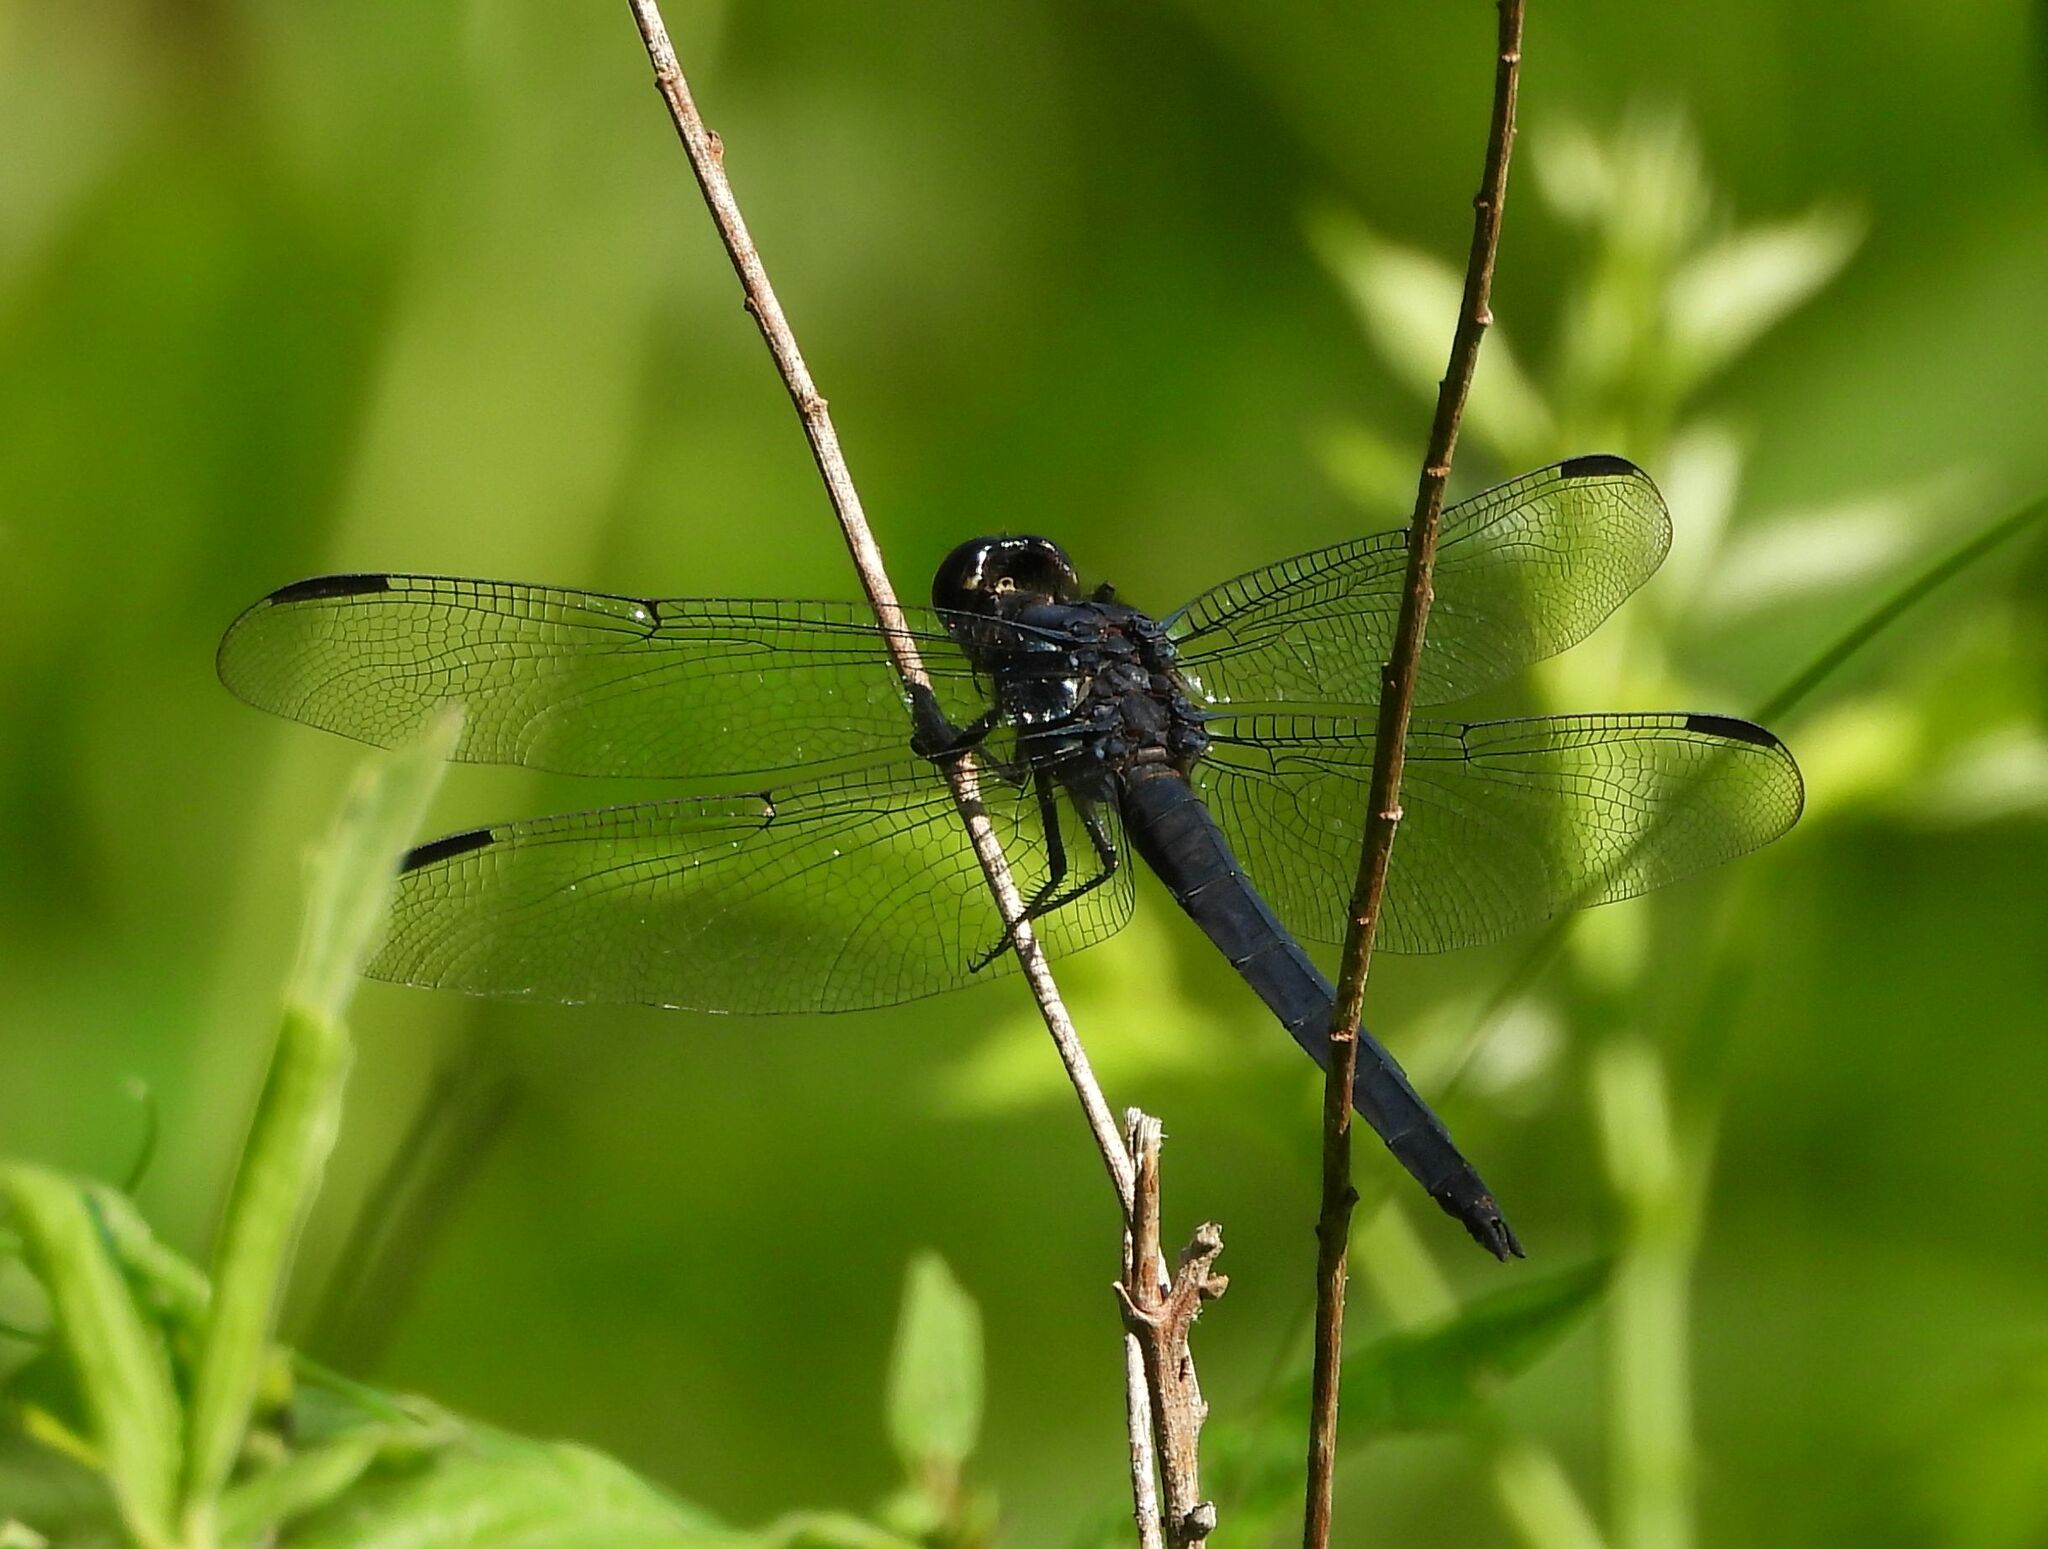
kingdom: Animalia
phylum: Arthropoda
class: Insecta
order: Odonata
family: Libellulidae
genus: Libellula
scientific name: Libellula incesta
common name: Slaty skimmer
